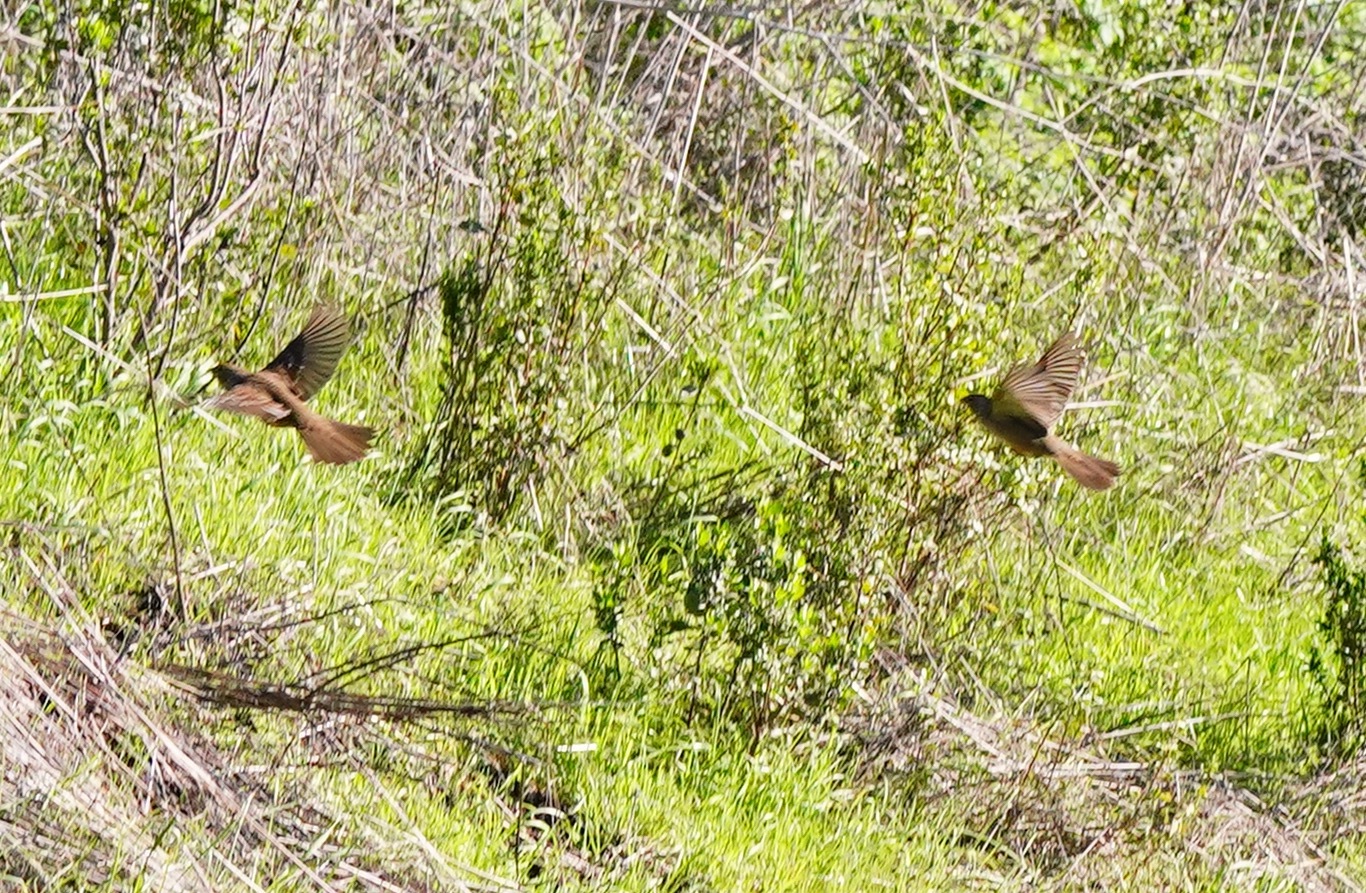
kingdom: Animalia
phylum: Chordata
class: Aves
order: Passeriformes
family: Passerellidae
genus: Zonotrichia
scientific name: Zonotrichia atricapilla
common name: Golden-crowned sparrow
